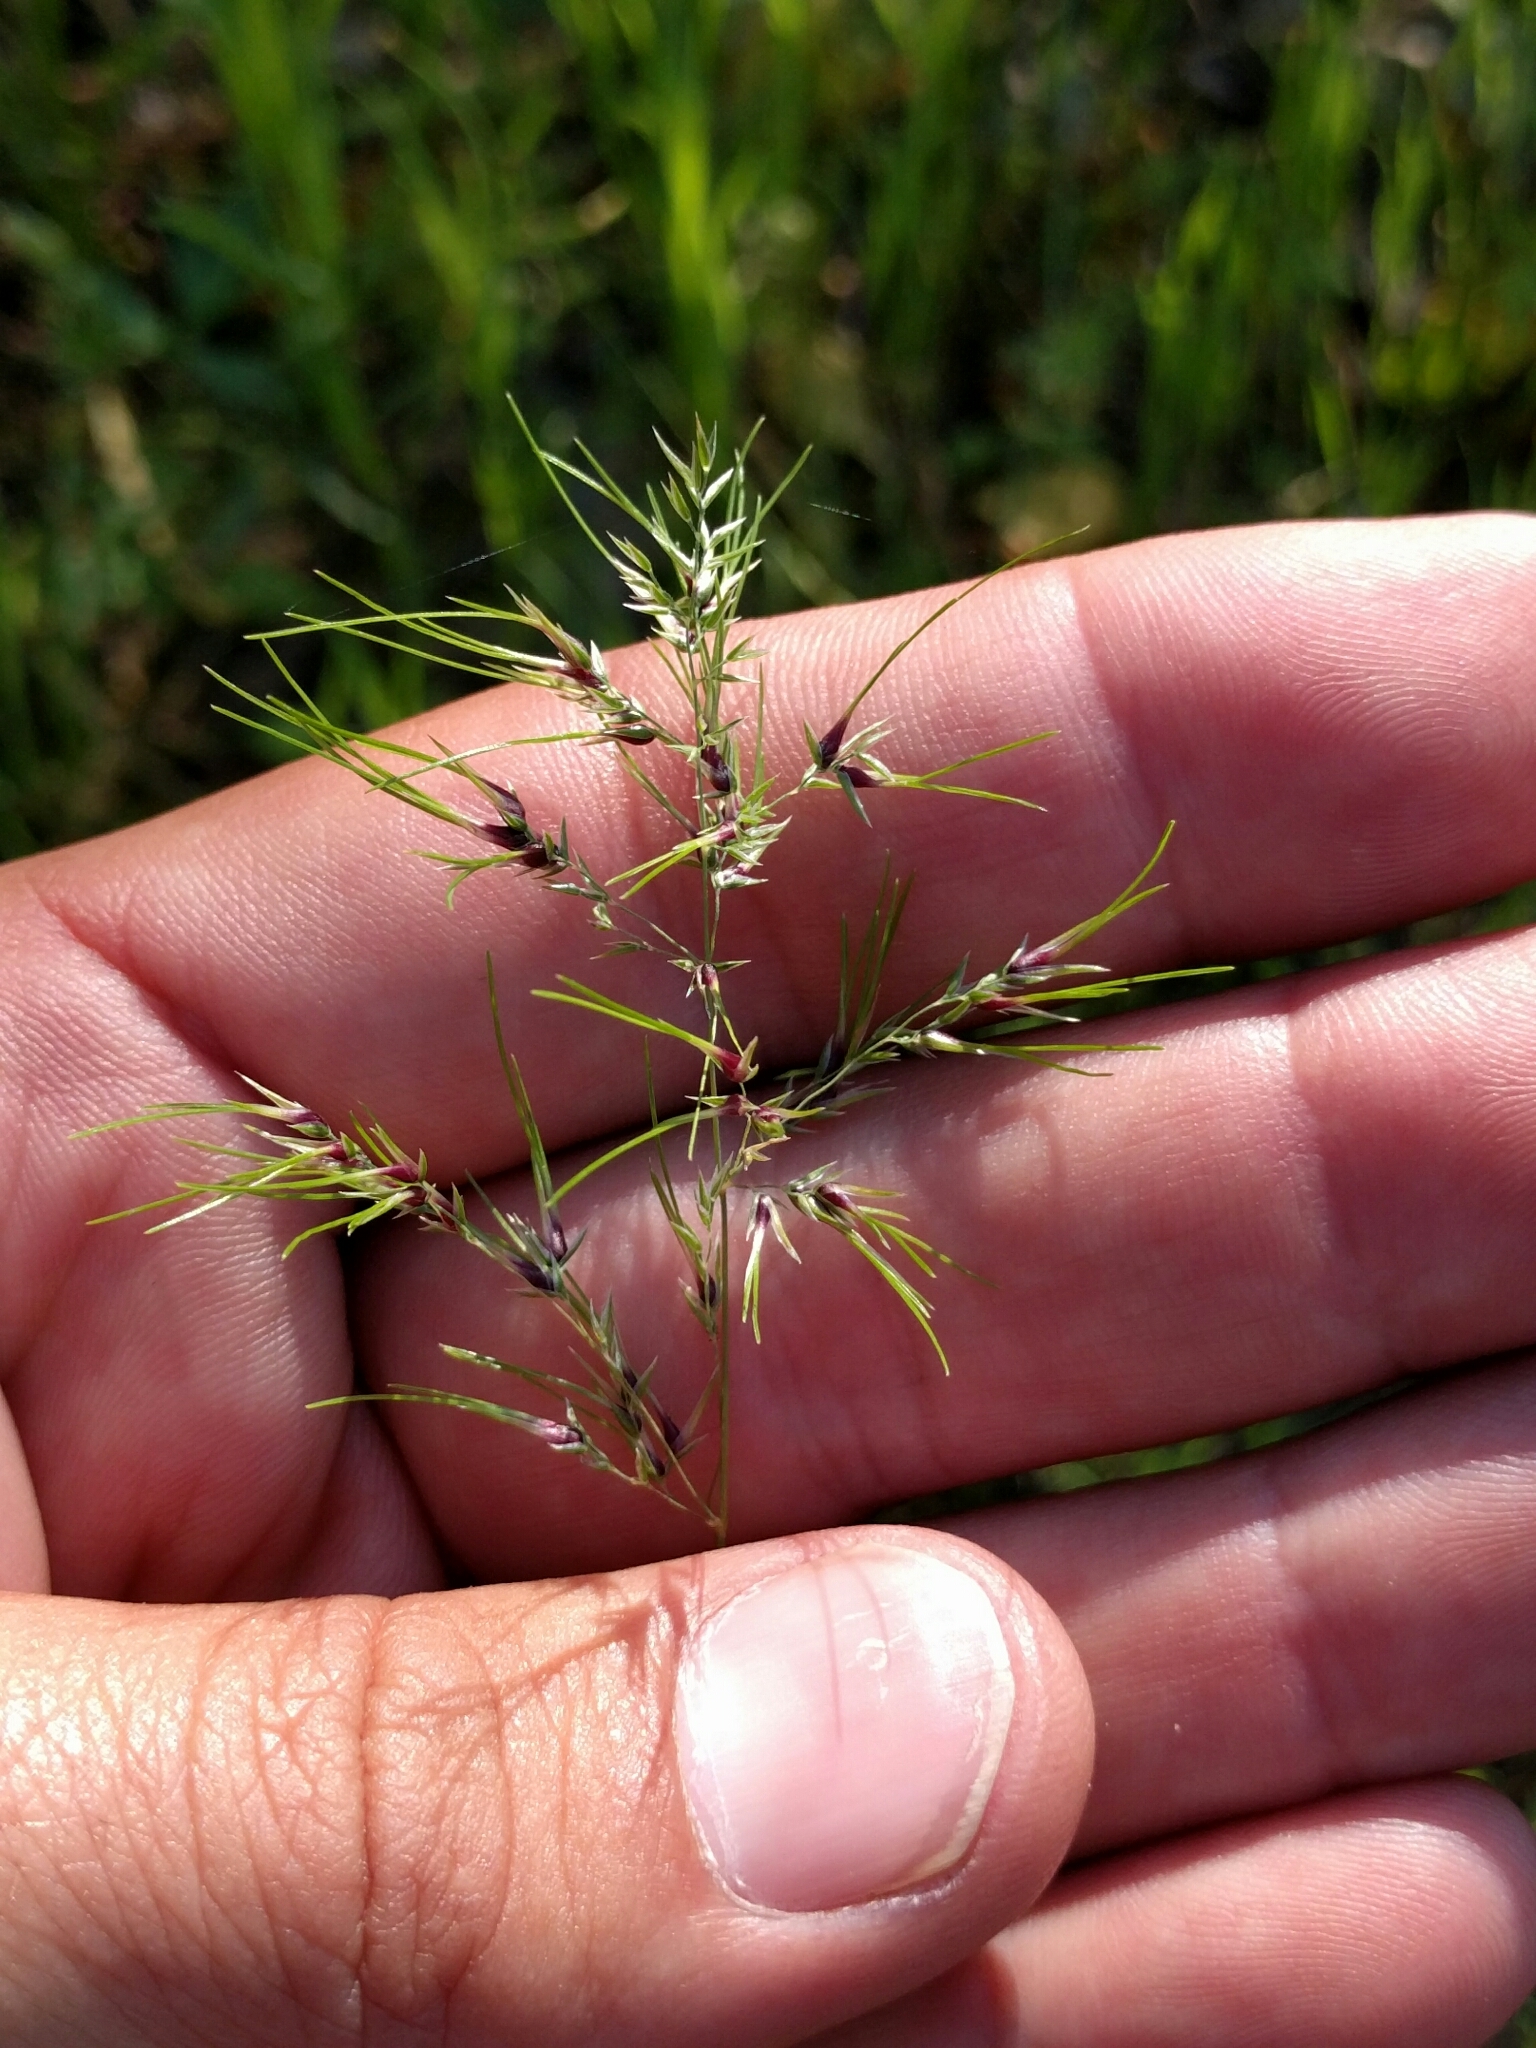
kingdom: Plantae
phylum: Tracheophyta
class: Liliopsida
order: Poales
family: Poaceae
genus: Poa
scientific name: Poa bulbosa
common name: Bulbous bluegrass
